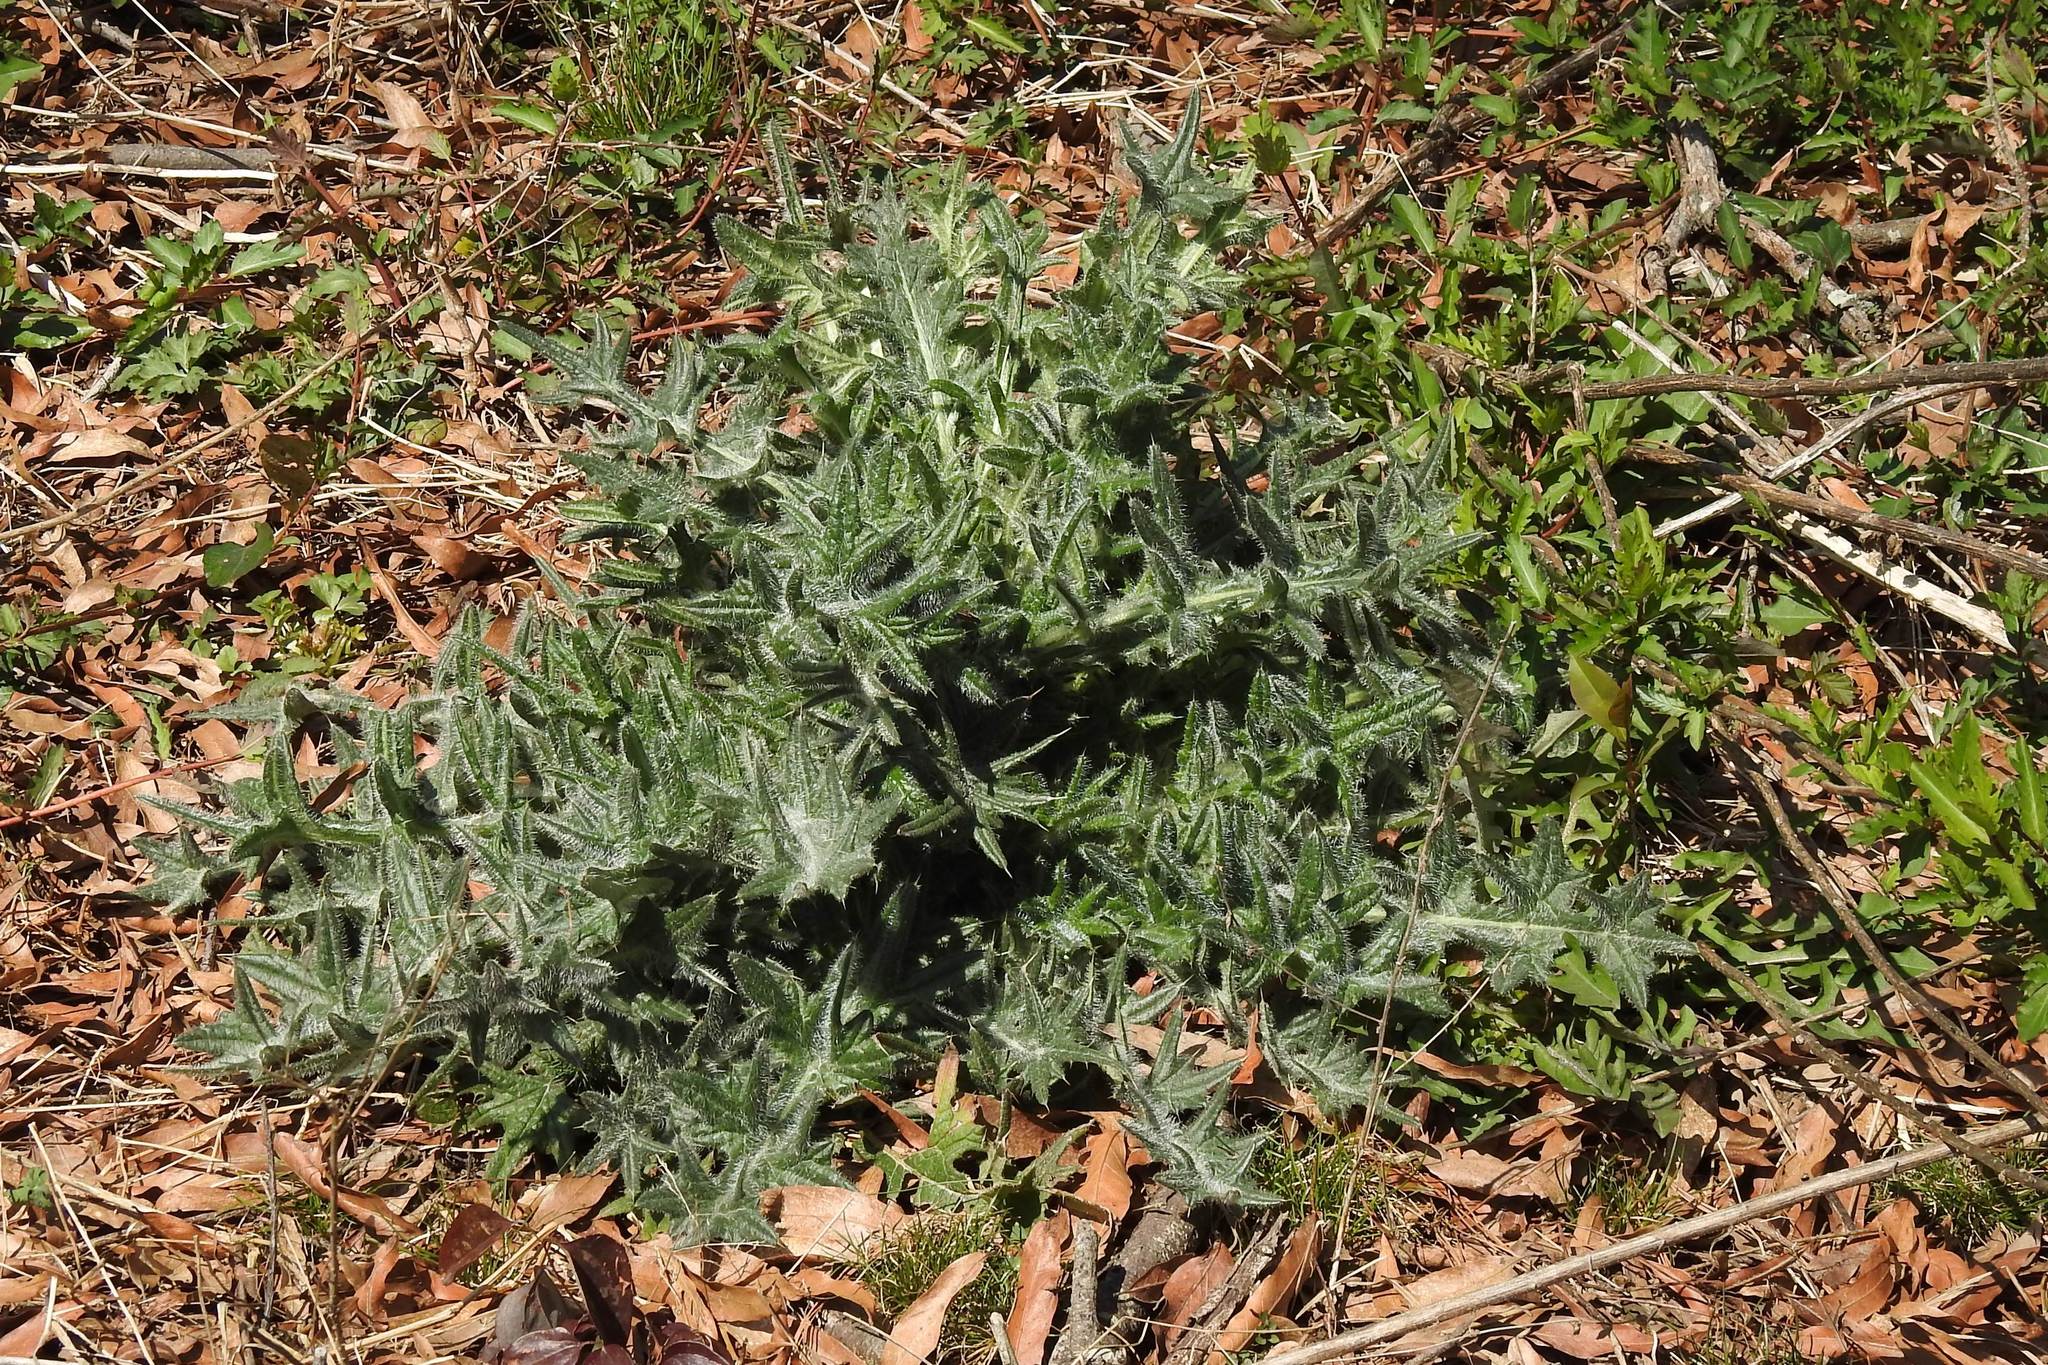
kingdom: Plantae
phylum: Tracheophyta
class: Magnoliopsida
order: Asterales
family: Asteraceae
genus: Cirsium
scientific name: Cirsium vulgare
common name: Bull thistle
